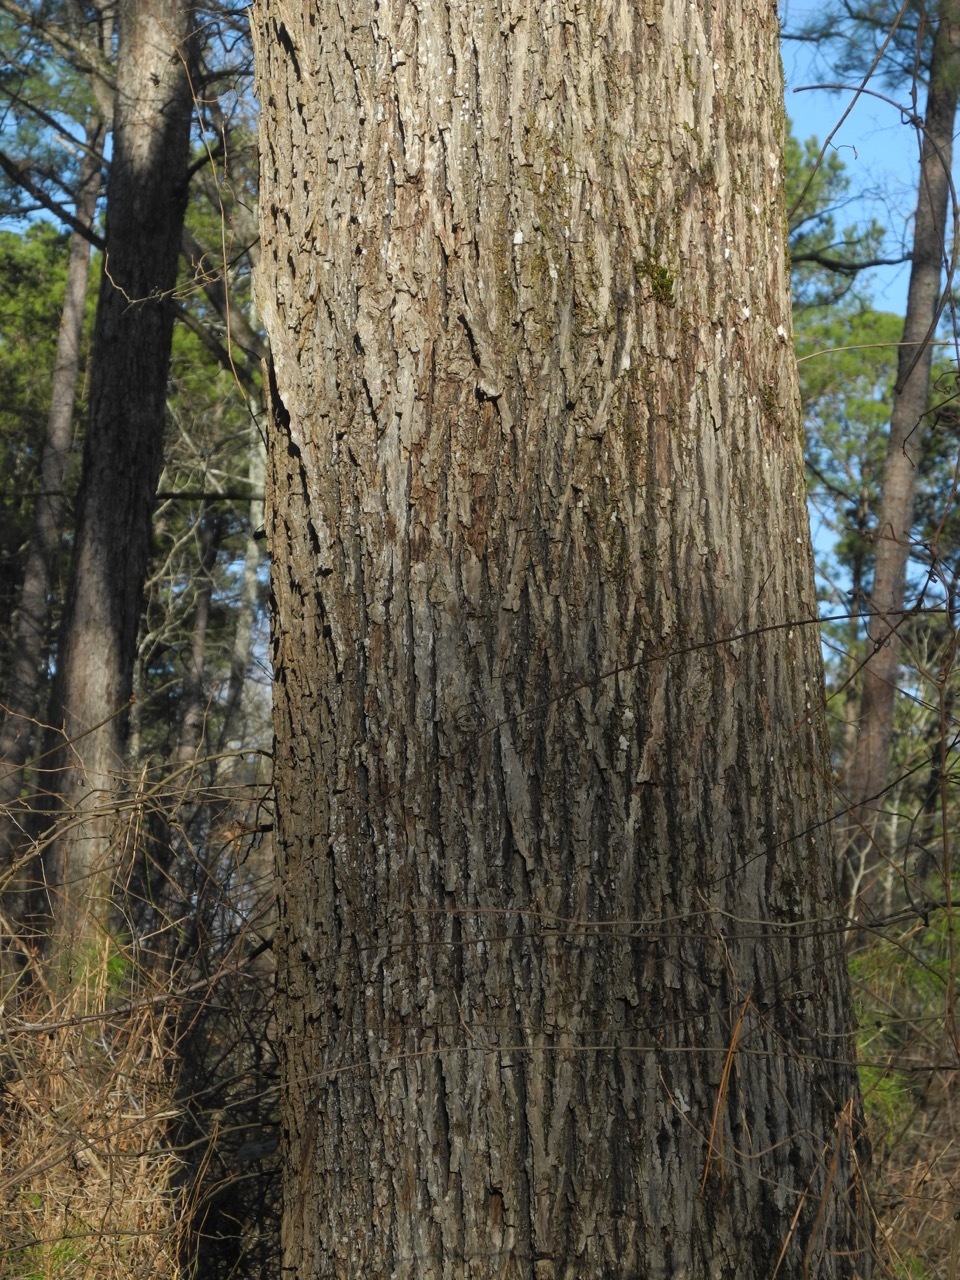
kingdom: Plantae
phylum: Tracheophyta
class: Magnoliopsida
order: Fagales
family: Juglandaceae
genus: Carya
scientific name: Carya cordiformis
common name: Bitternut hickory
